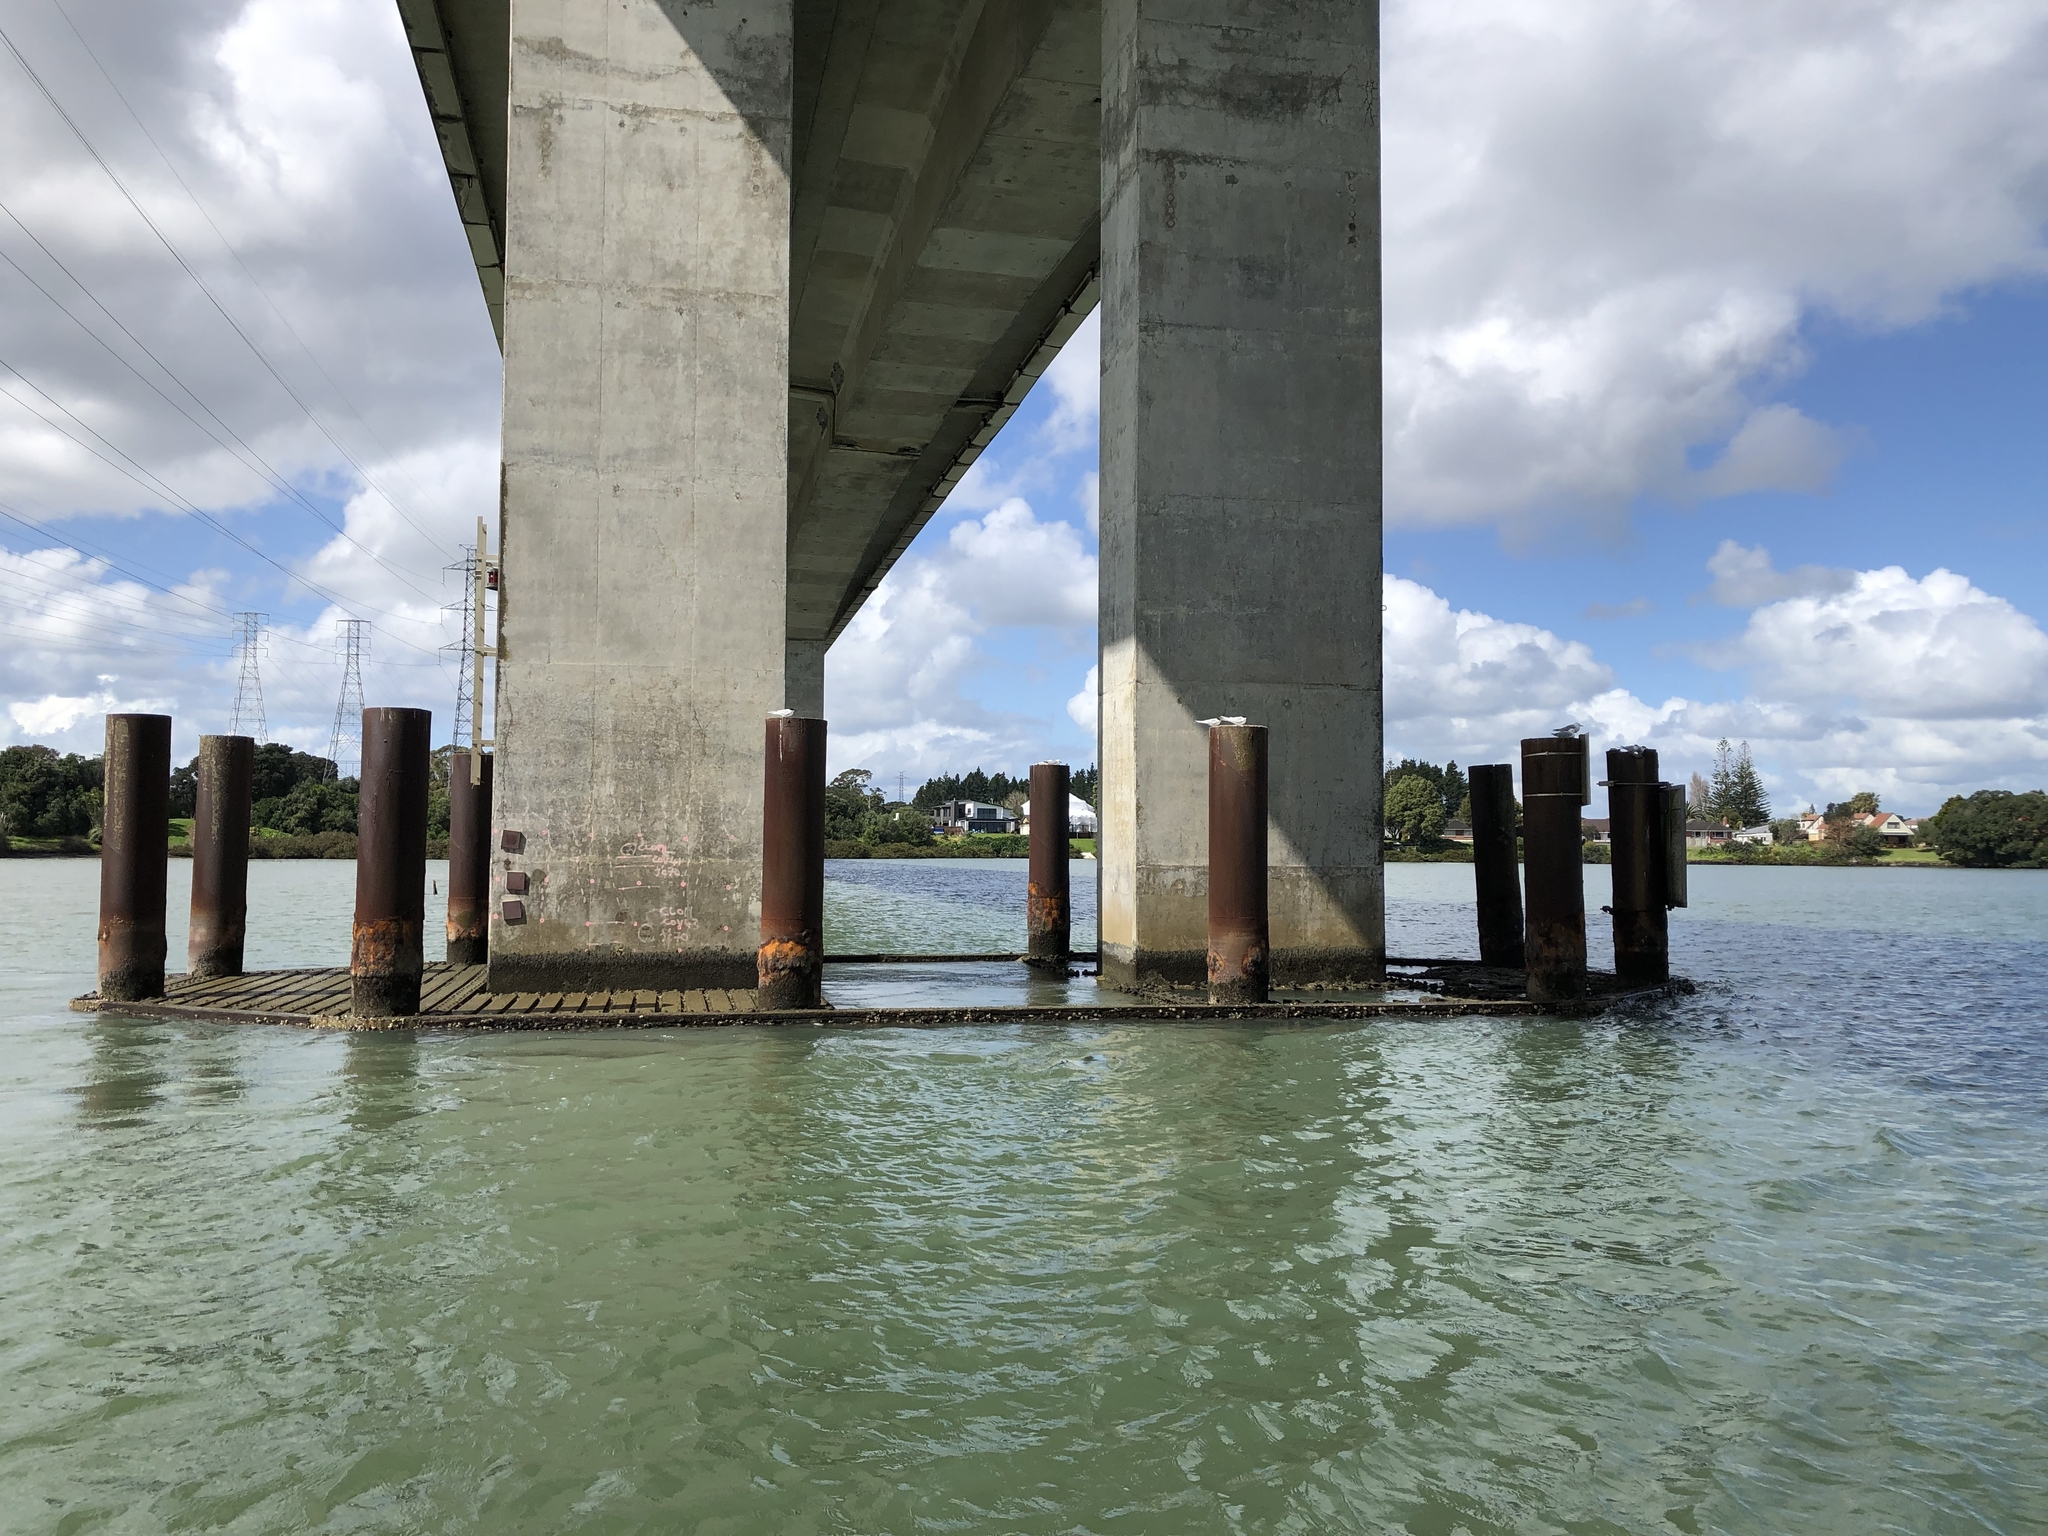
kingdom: Animalia
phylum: Chordata
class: Aves
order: Charadriiformes
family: Laridae
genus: Sterna
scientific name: Sterna striata
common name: White-fronted tern
